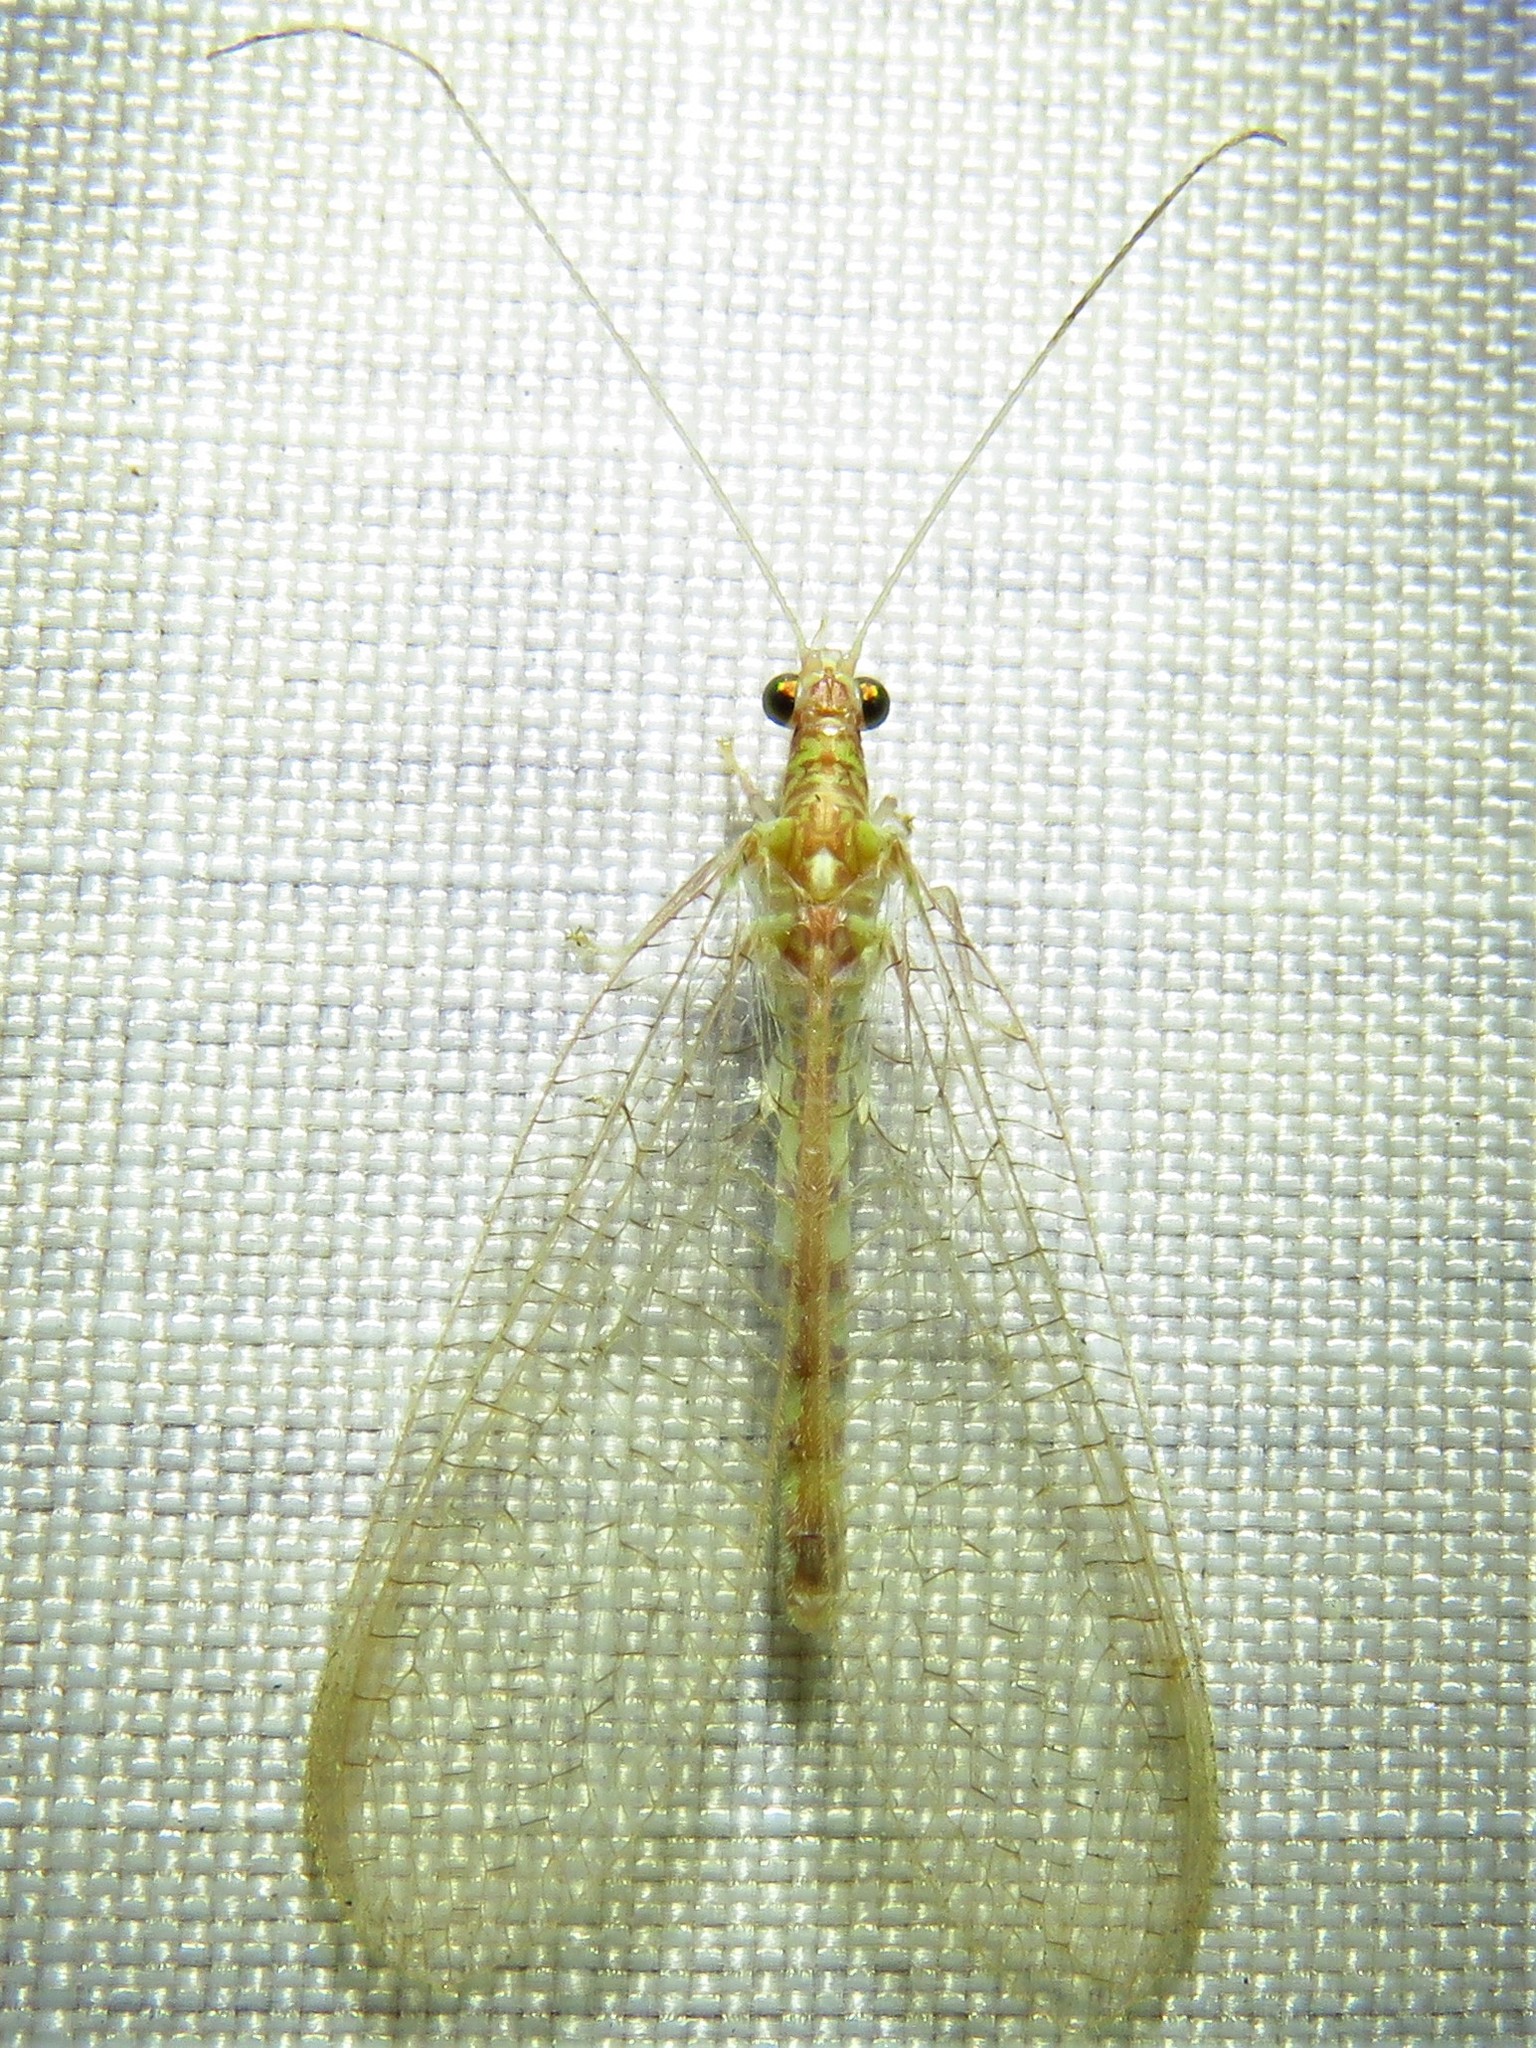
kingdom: Animalia
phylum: Arthropoda
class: Insecta
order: Neuroptera
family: Chrysopidae
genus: Chrysoperla
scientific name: Chrysoperla rufilabris
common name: Red-lipped green lacewing
